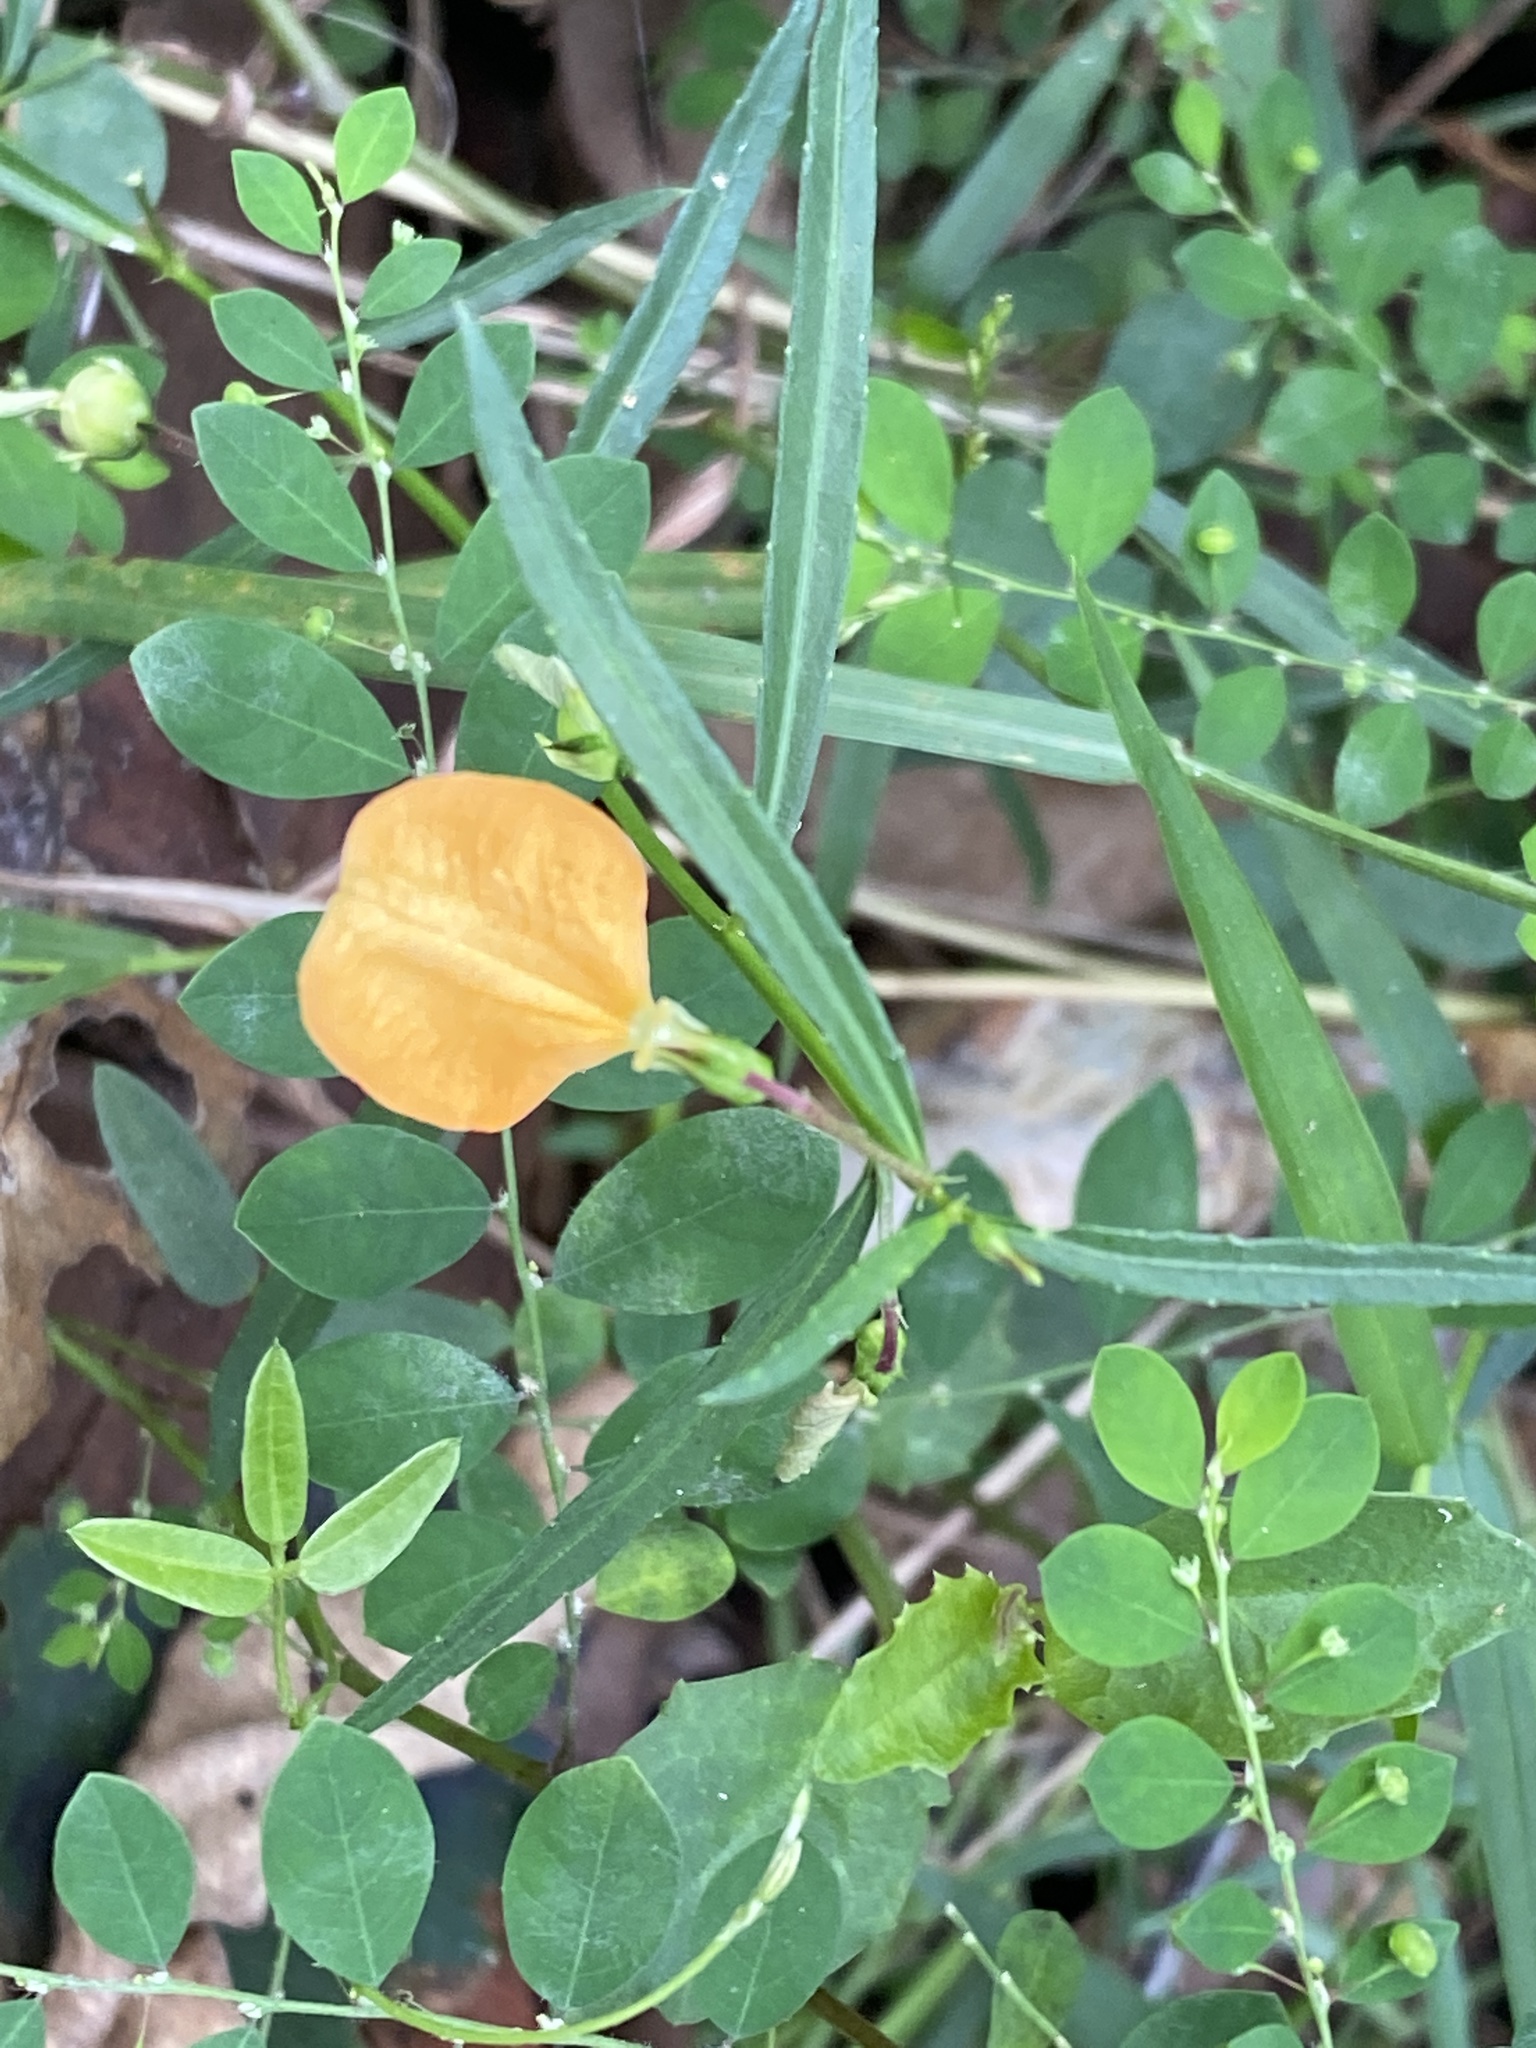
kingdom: Plantae
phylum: Tracheophyta
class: Magnoliopsida
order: Malpighiales
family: Violaceae
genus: Pigea
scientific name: Pigea stellarioides
